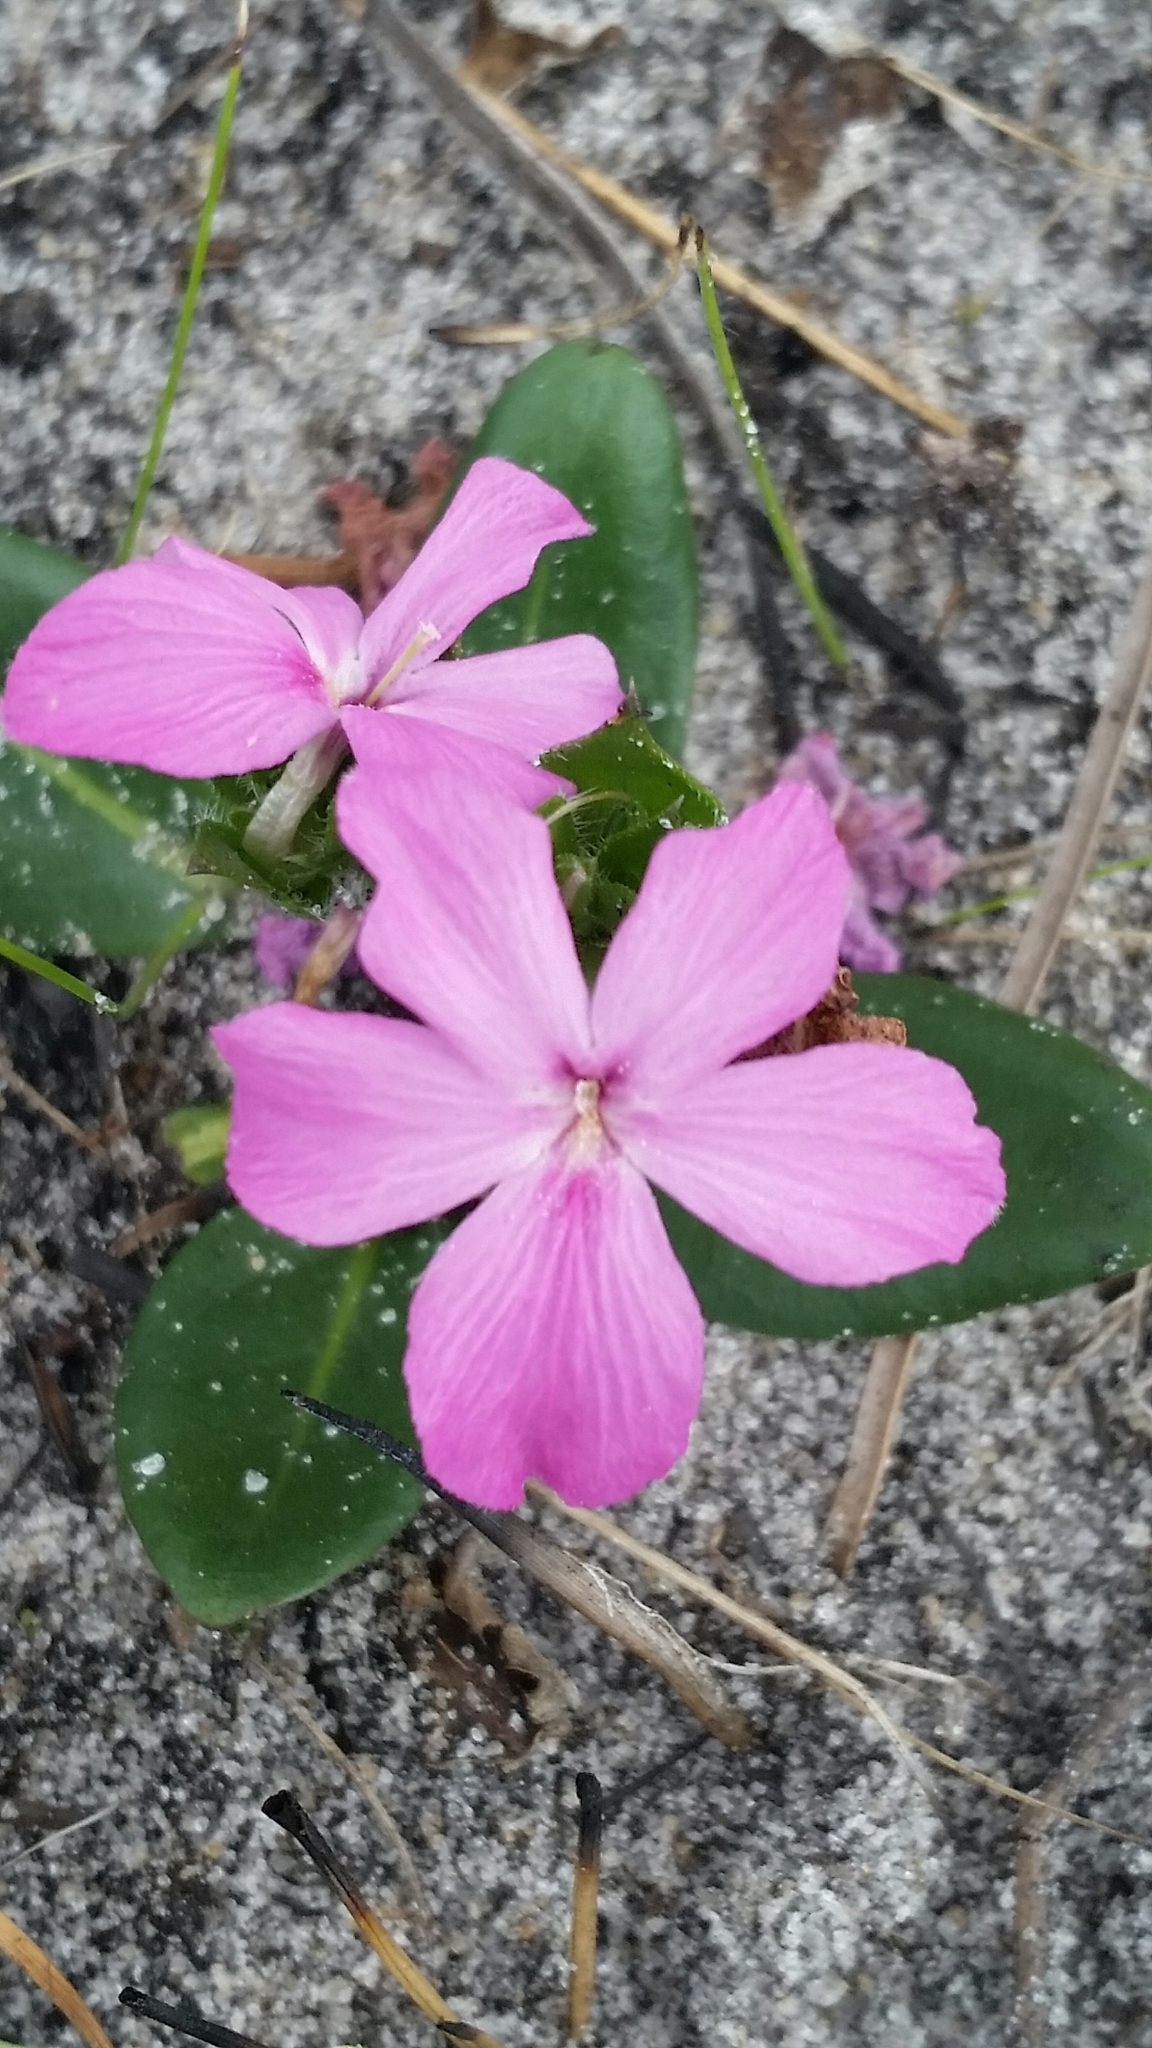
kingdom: Plantae
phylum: Tracheophyta
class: Magnoliopsida
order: Lamiales
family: Acanthaceae
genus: Stenandrium
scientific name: Stenandrium dulce
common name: Pinklet
